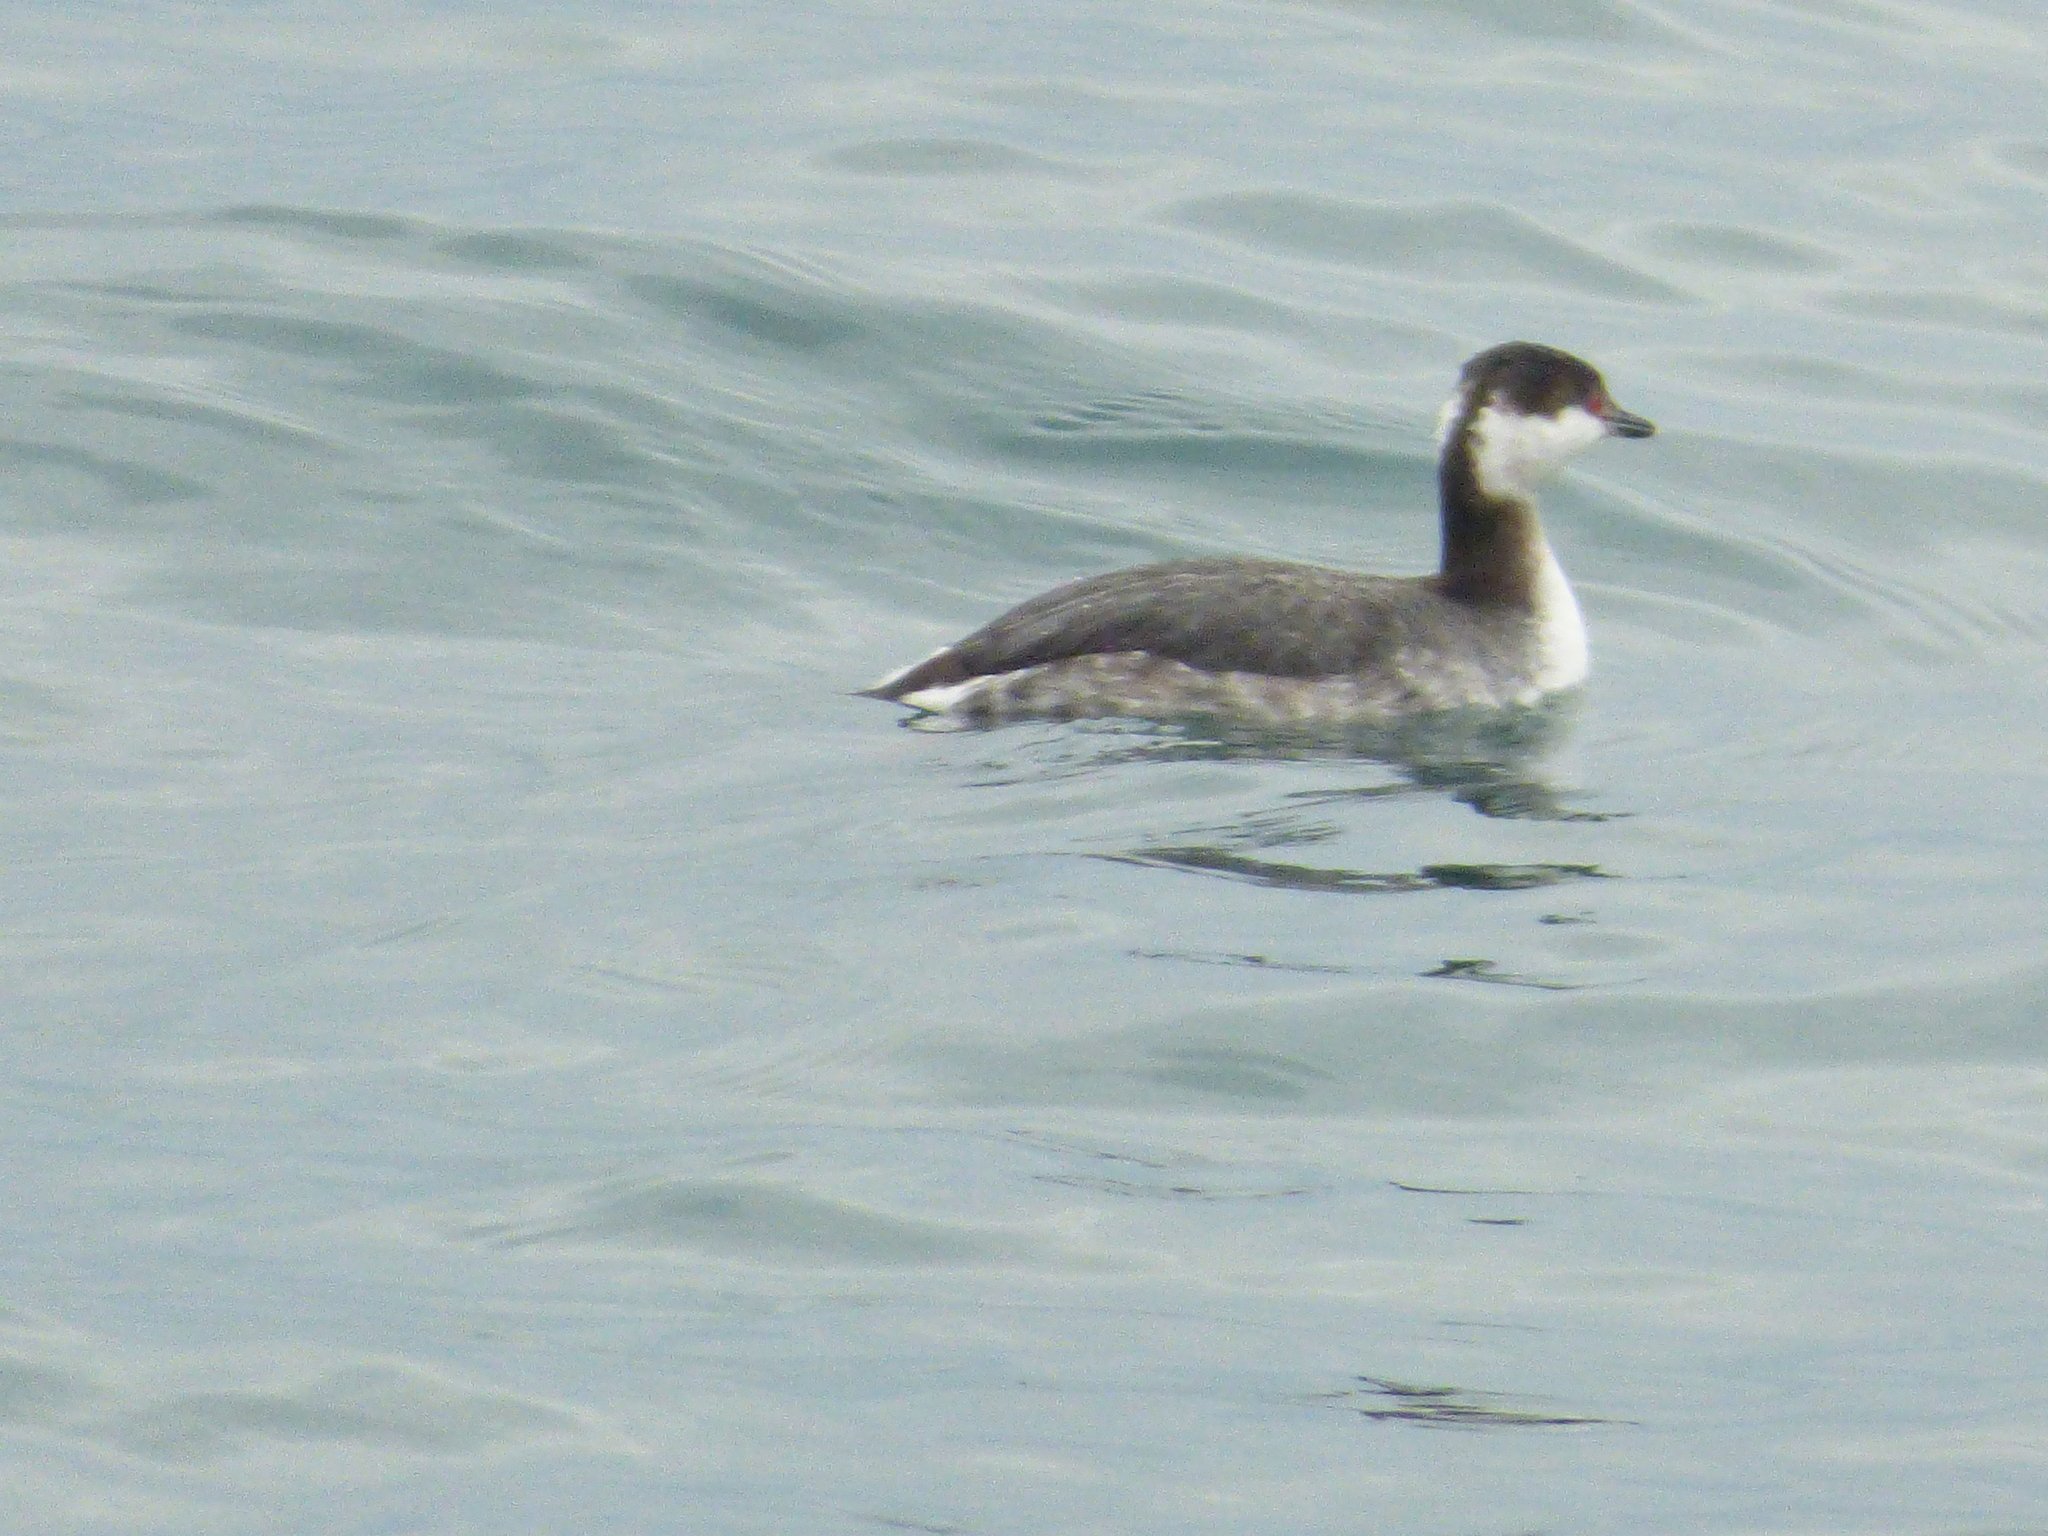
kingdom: Animalia
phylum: Chordata
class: Aves
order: Podicipediformes
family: Podicipedidae
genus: Podiceps
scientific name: Podiceps auritus
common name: Horned grebe
